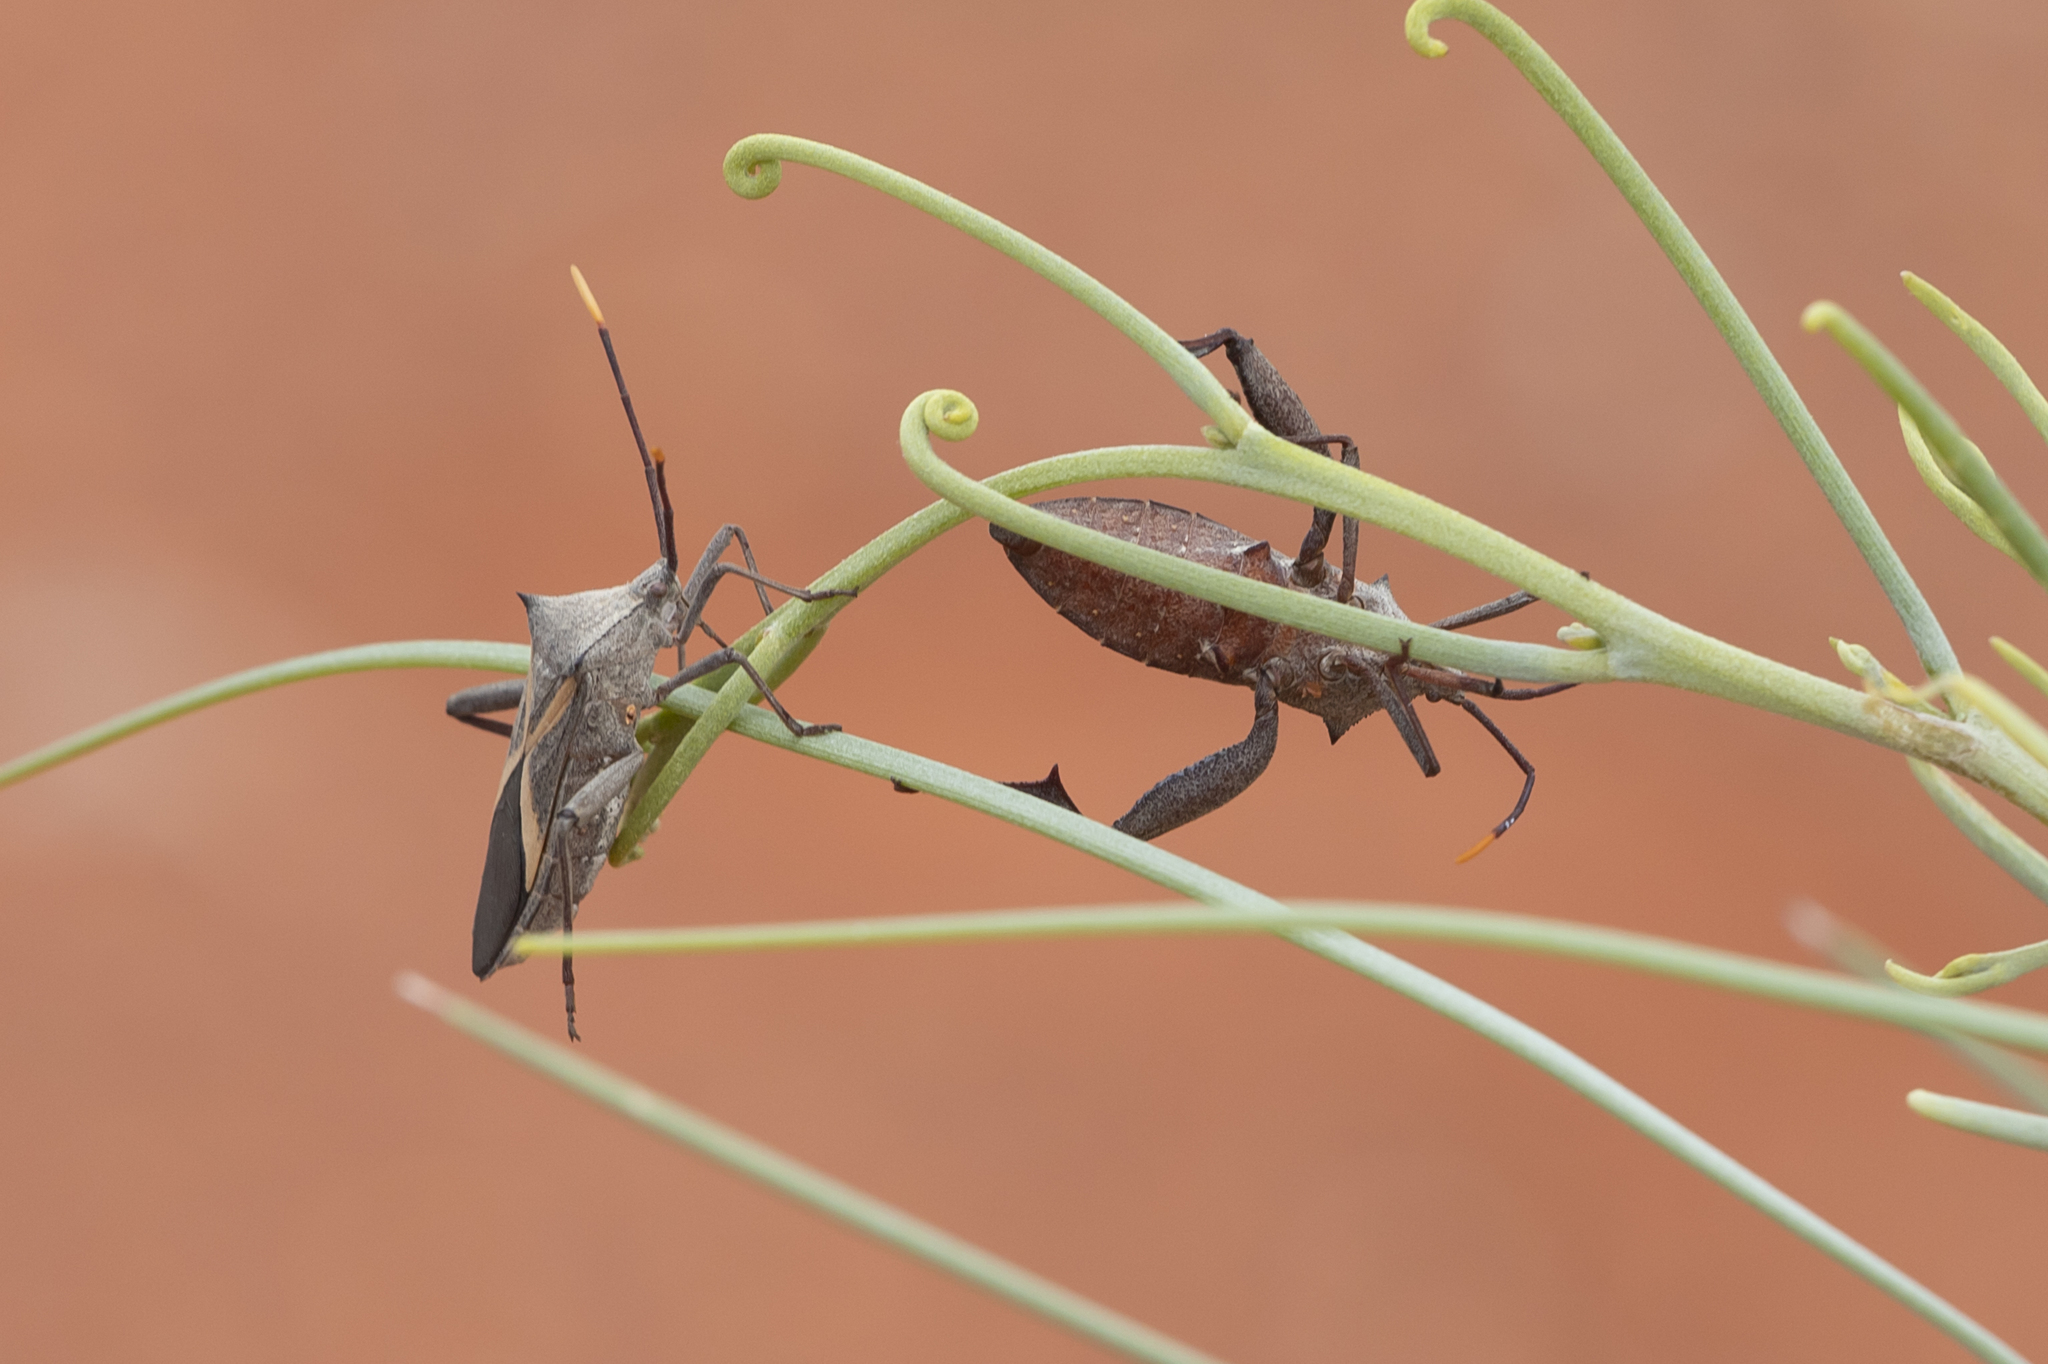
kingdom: Animalia
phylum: Arthropoda
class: Insecta
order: Hemiptera
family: Coreidae
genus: Mictis
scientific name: Mictis profana
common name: Crusader bug
